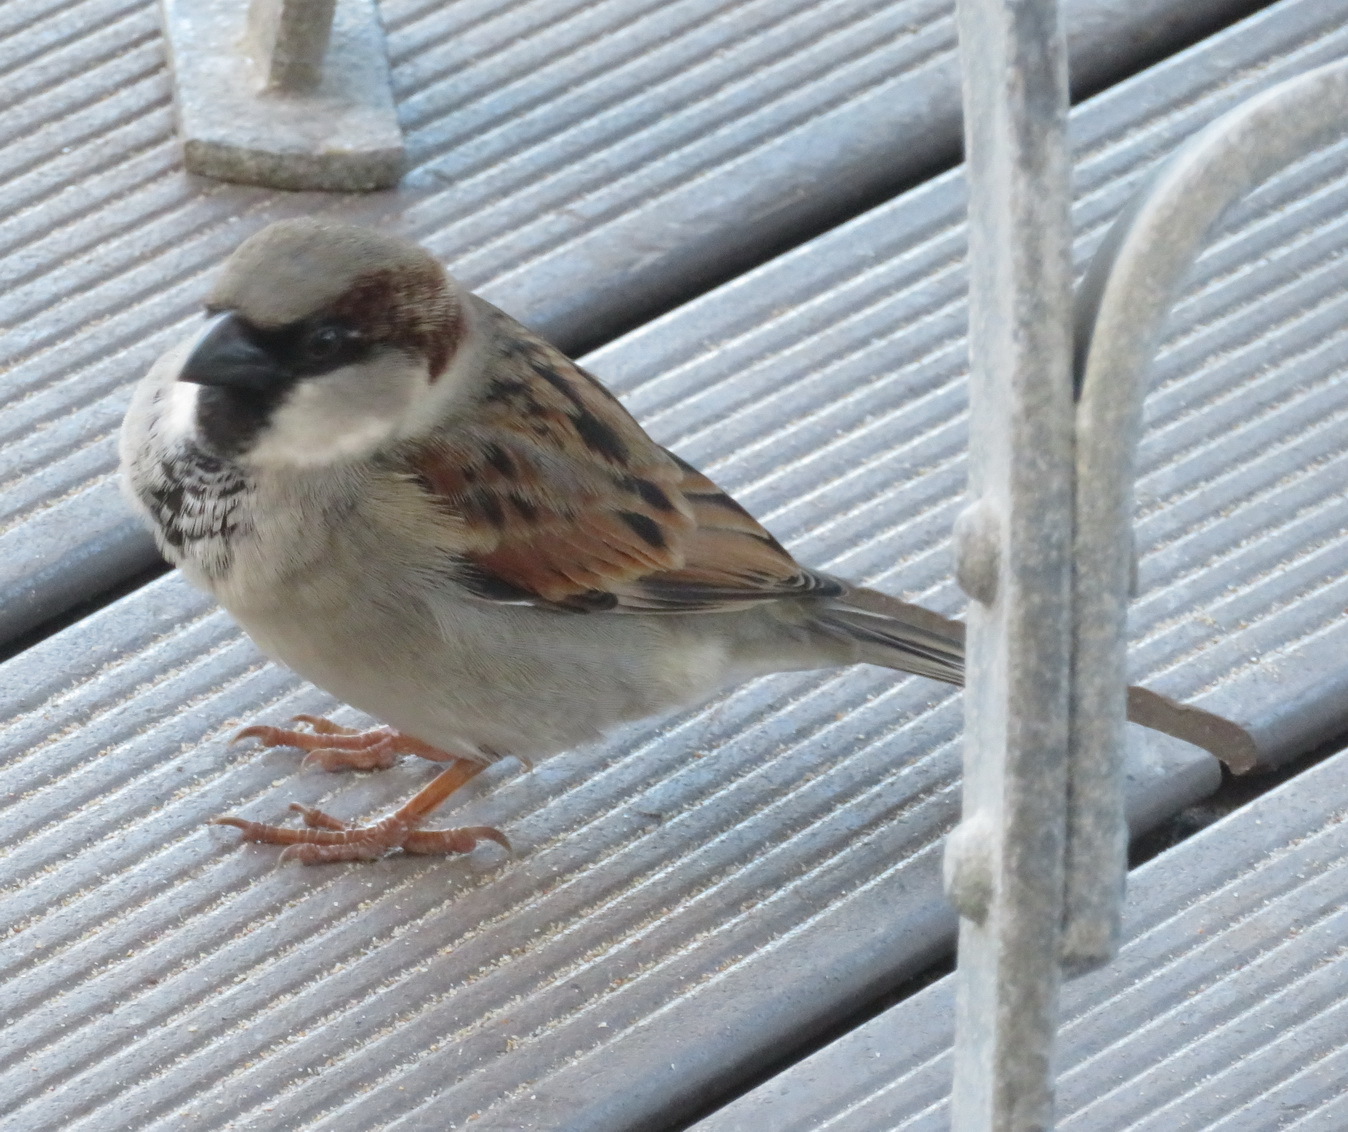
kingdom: Animalia
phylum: Chordata
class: Aves
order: Passeriformes
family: Passeridae
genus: Passer
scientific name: Passer domesticus
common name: House sparrow
